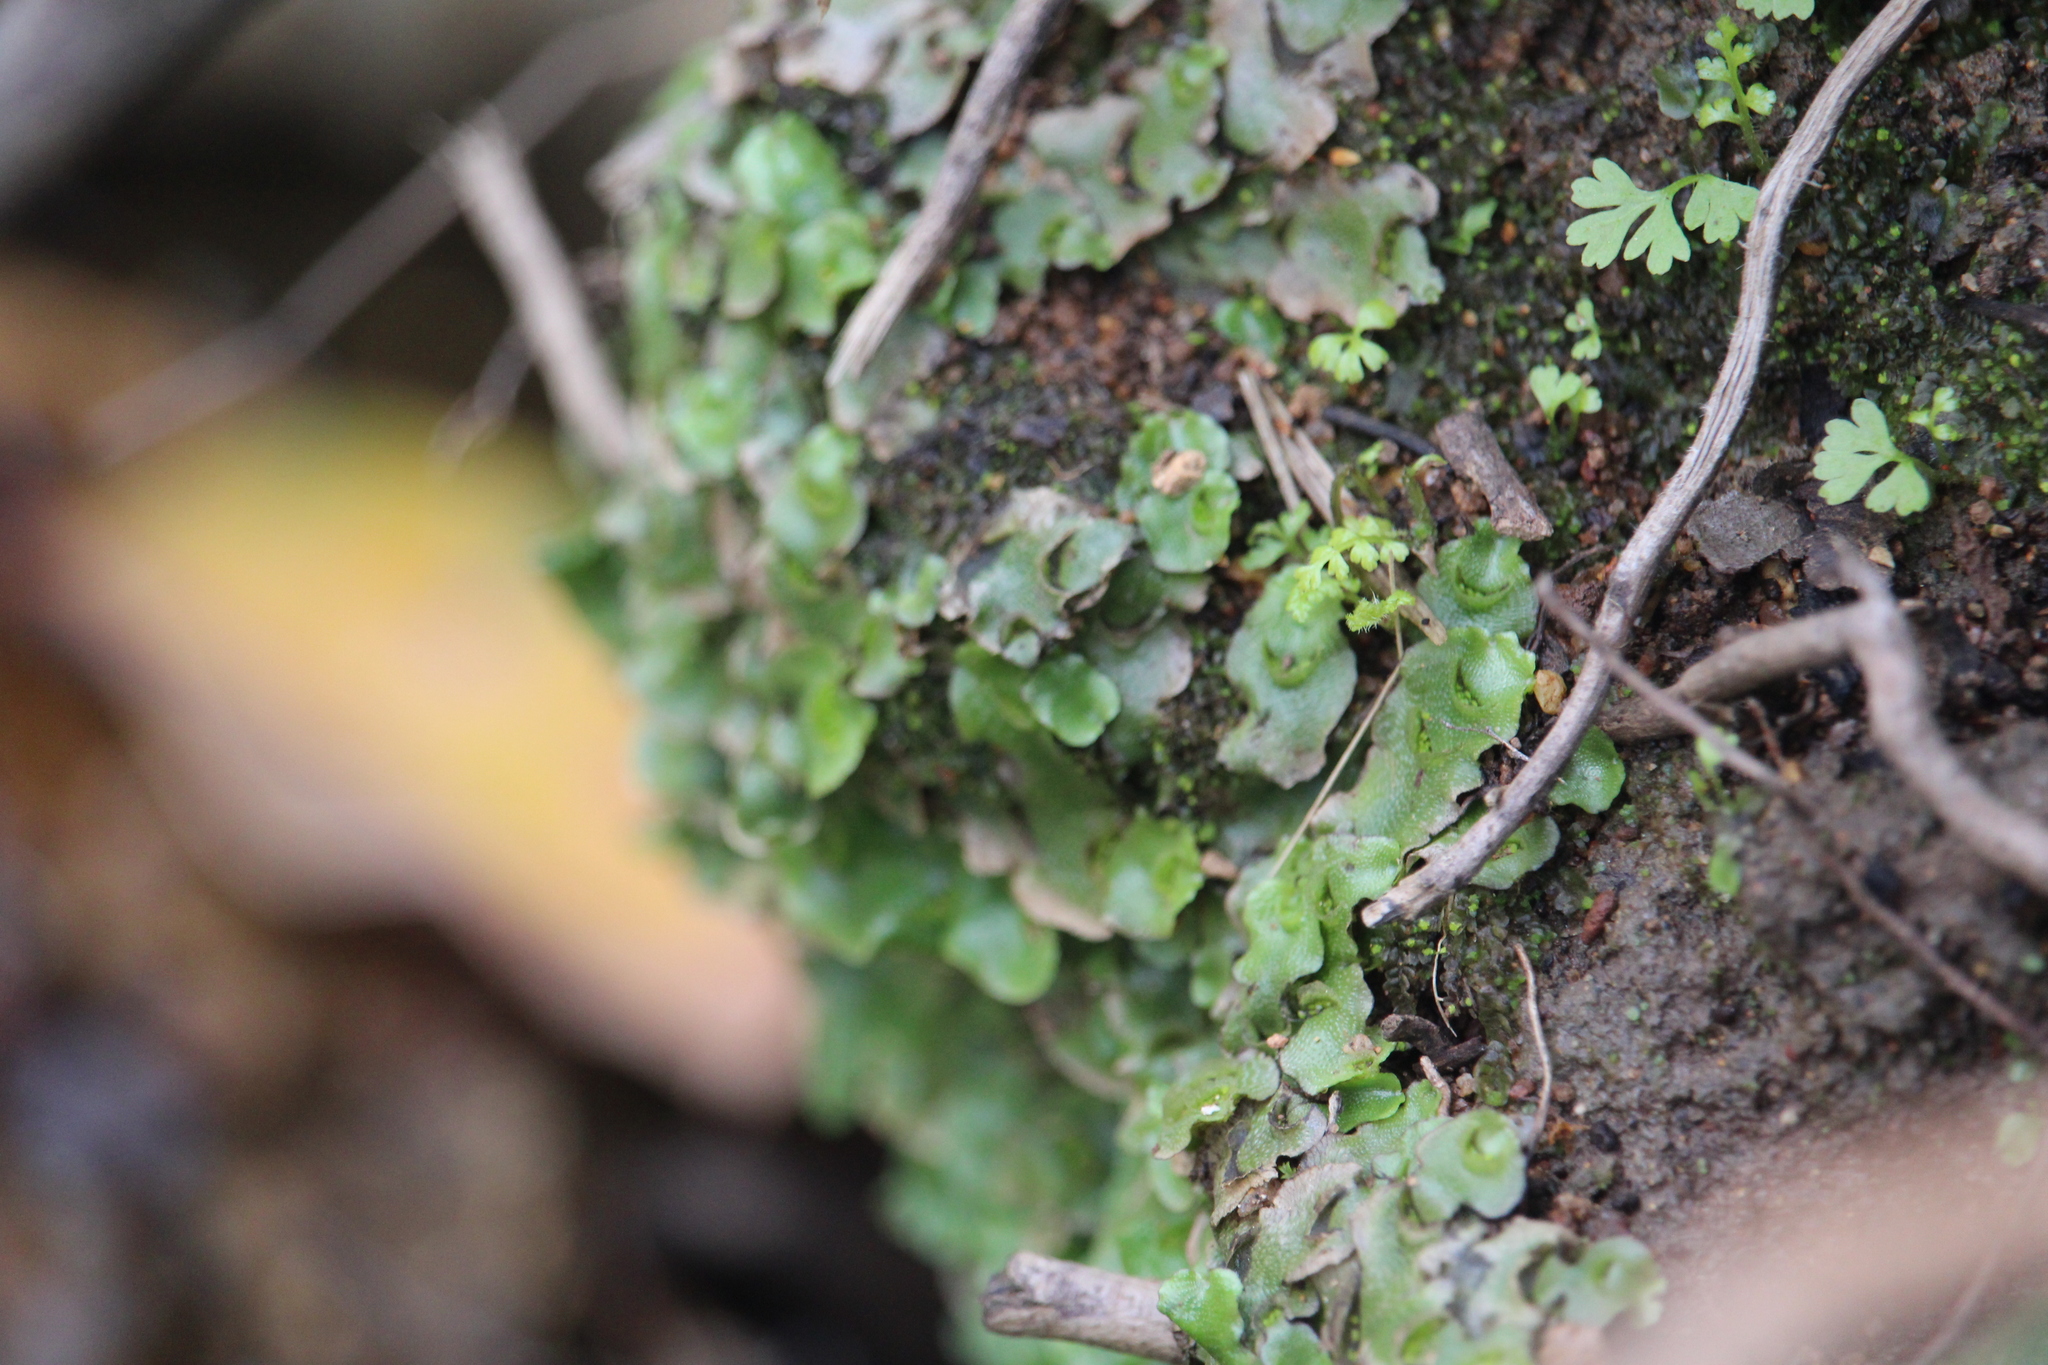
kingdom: Plantae
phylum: Marchantiophyta
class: Marchantiopsida
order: Lunulariales
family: Lunulariaceae
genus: Lunularia
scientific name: Lunularia cruciata
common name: Crescent-cup liverwort
